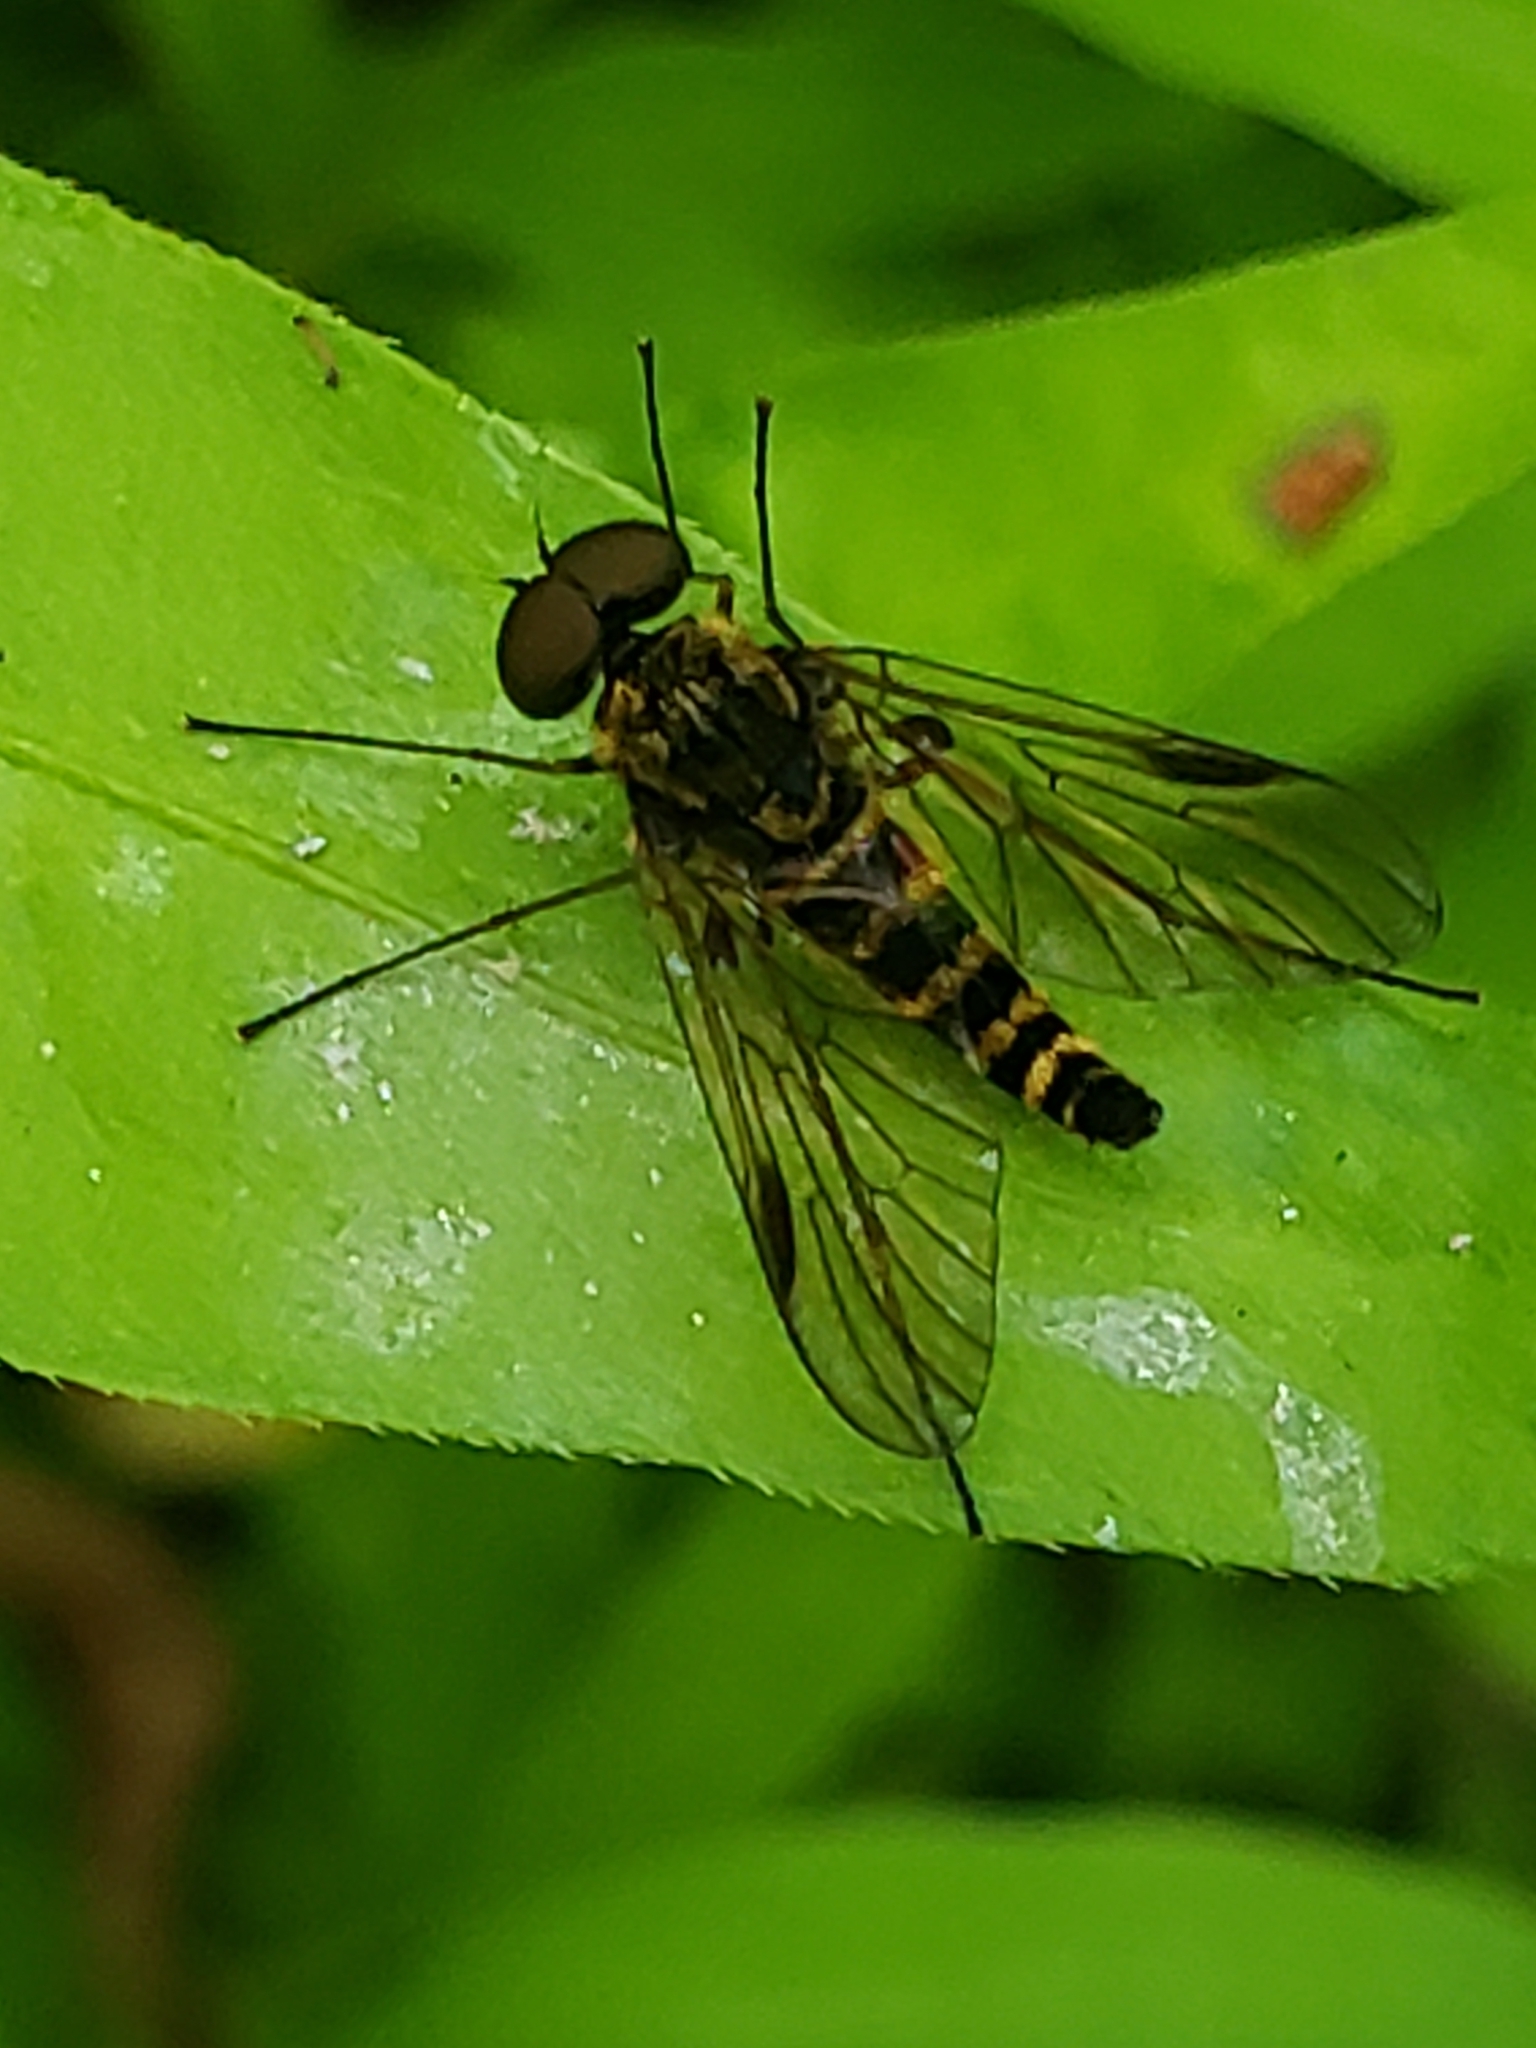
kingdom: Animalia
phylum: Arthropoda
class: Insecta
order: Diptera
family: Rhagionidae
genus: Chrysopilus
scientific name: Chrysopilus fasciatus
